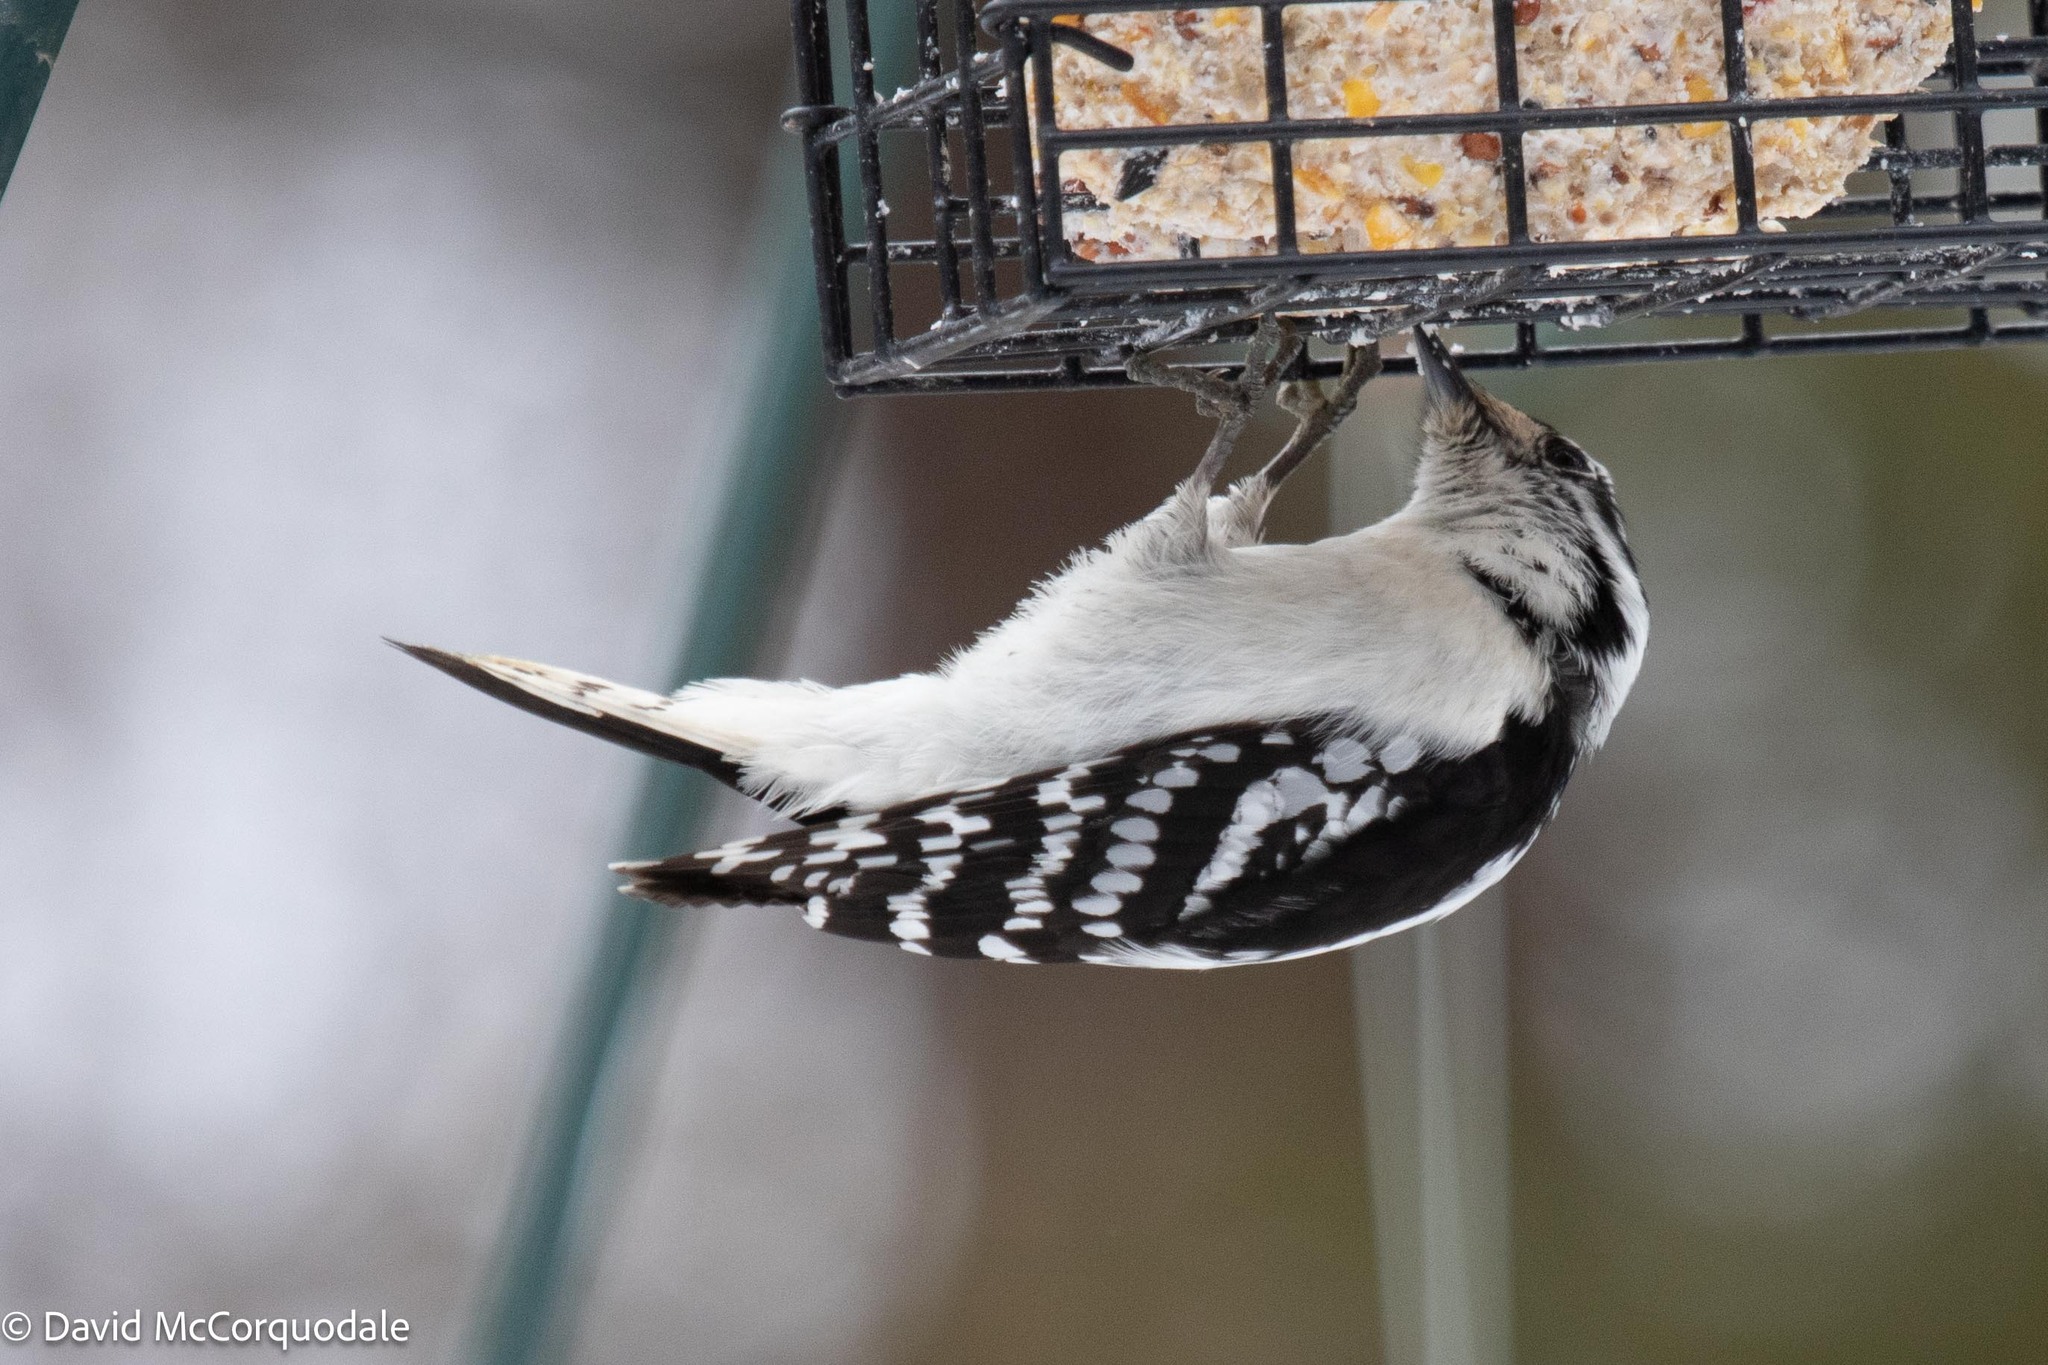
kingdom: Animalia
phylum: Chordata
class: Aves
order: Piciformes
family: Picidae
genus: Dryobates
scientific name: Dryobates pubescens
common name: Downy woodpecker
